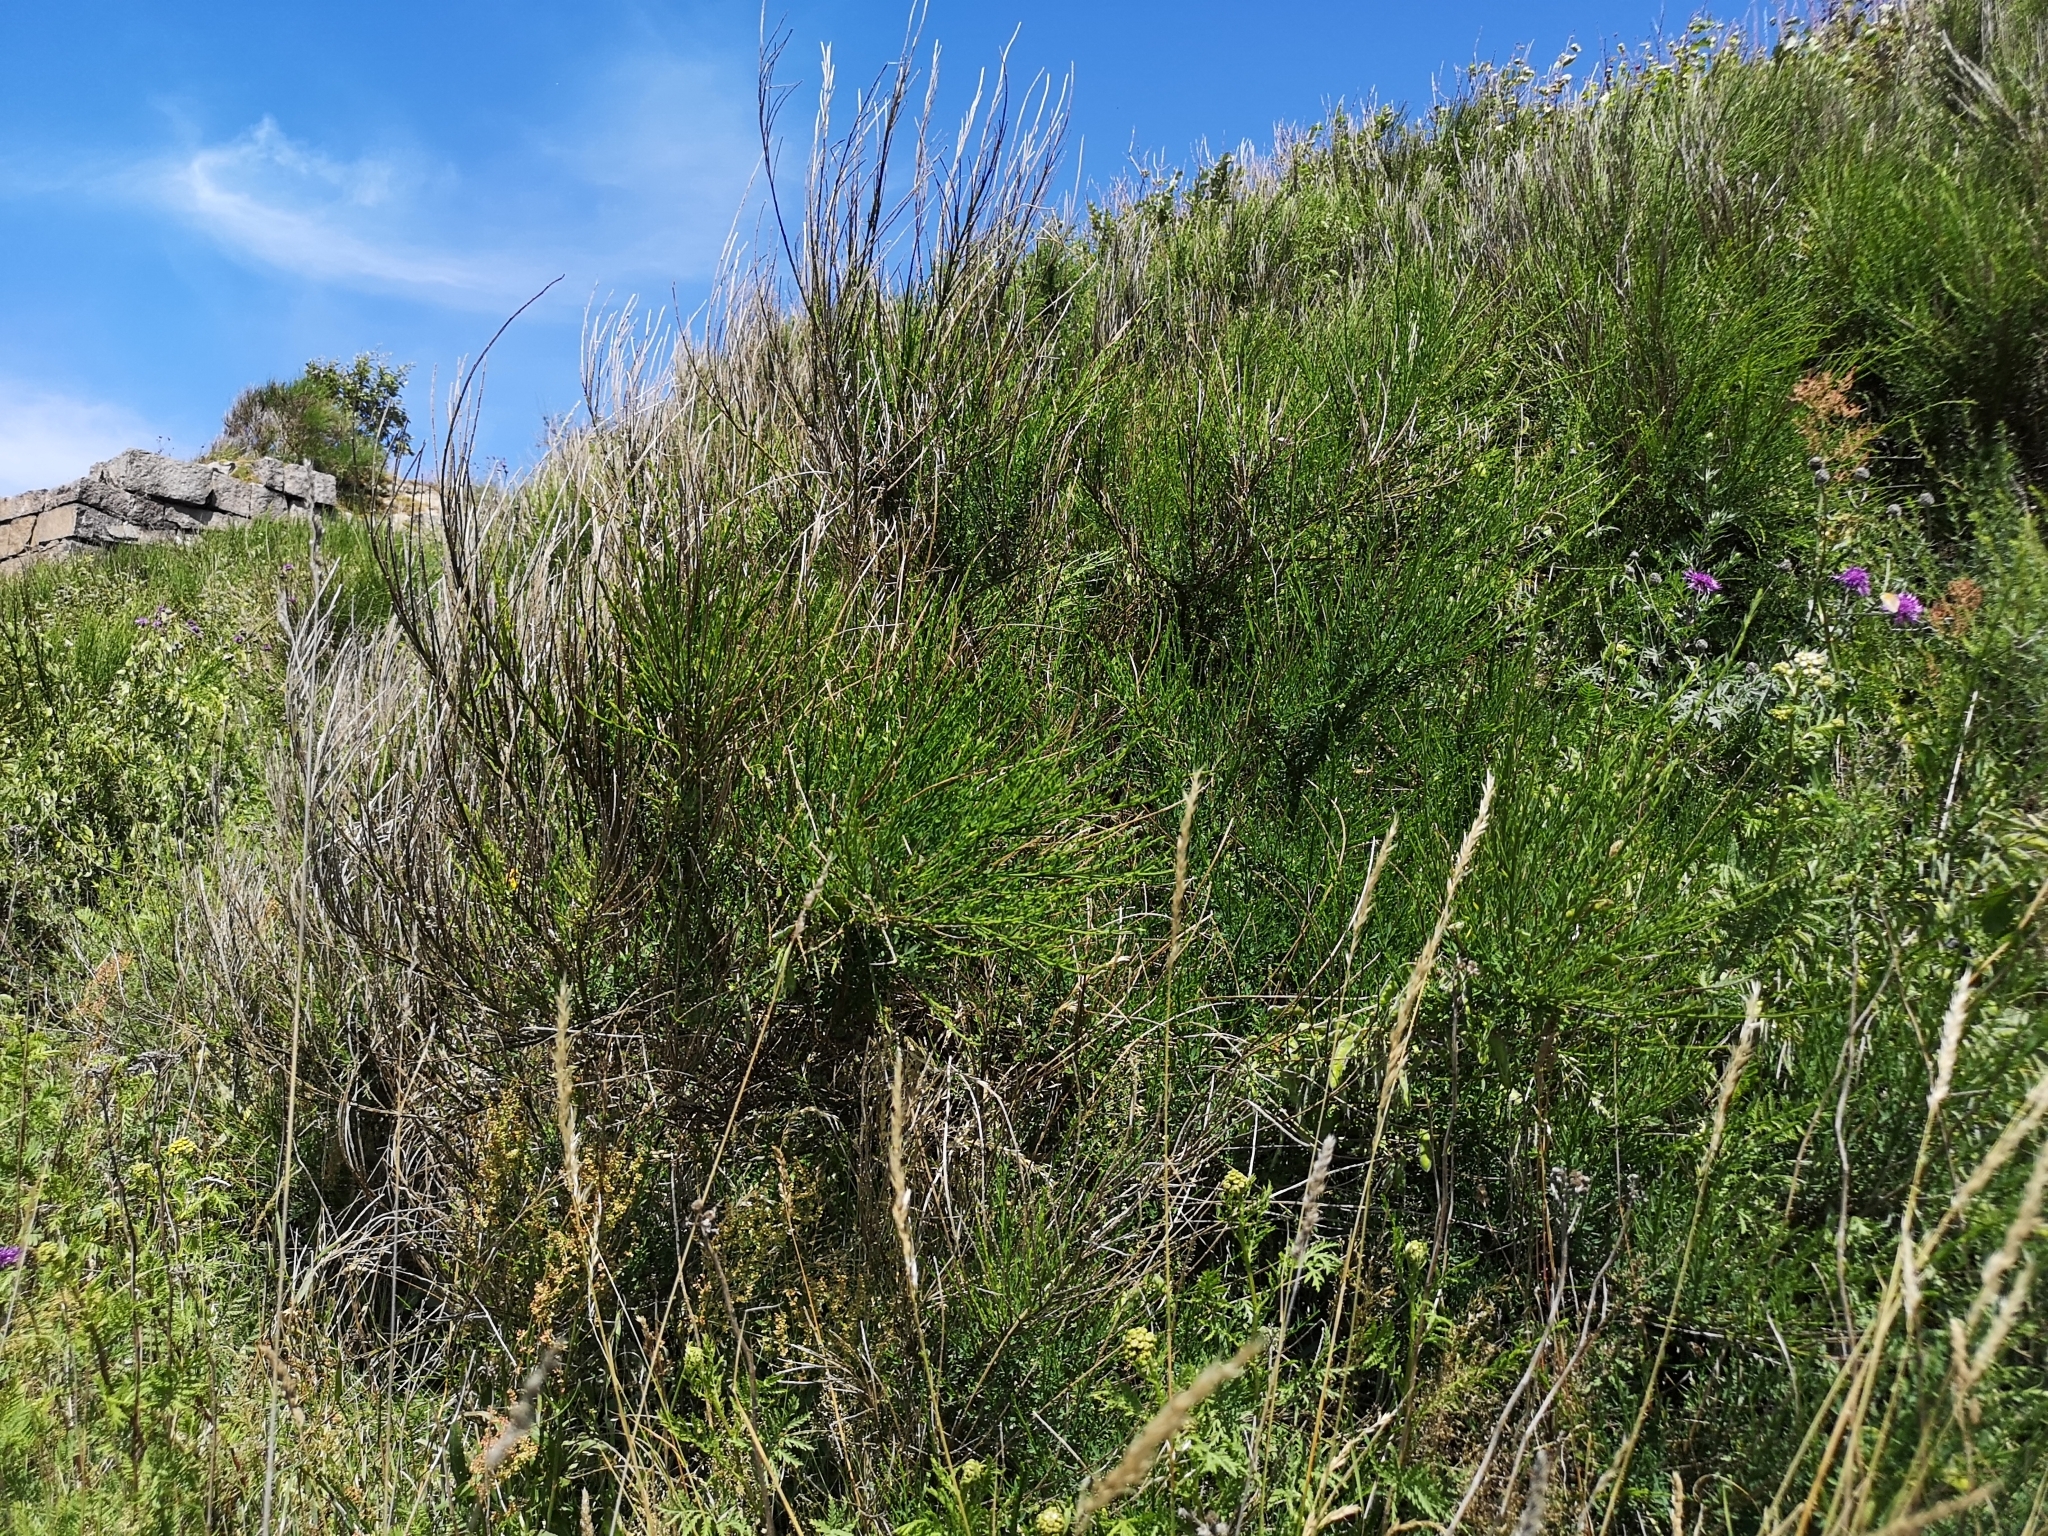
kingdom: Plantae
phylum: Tracheophyta
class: Magnoliopsida
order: Fabales
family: Fabaceae
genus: Cytisus
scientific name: Cytisus scoparius
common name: Scotch broom
